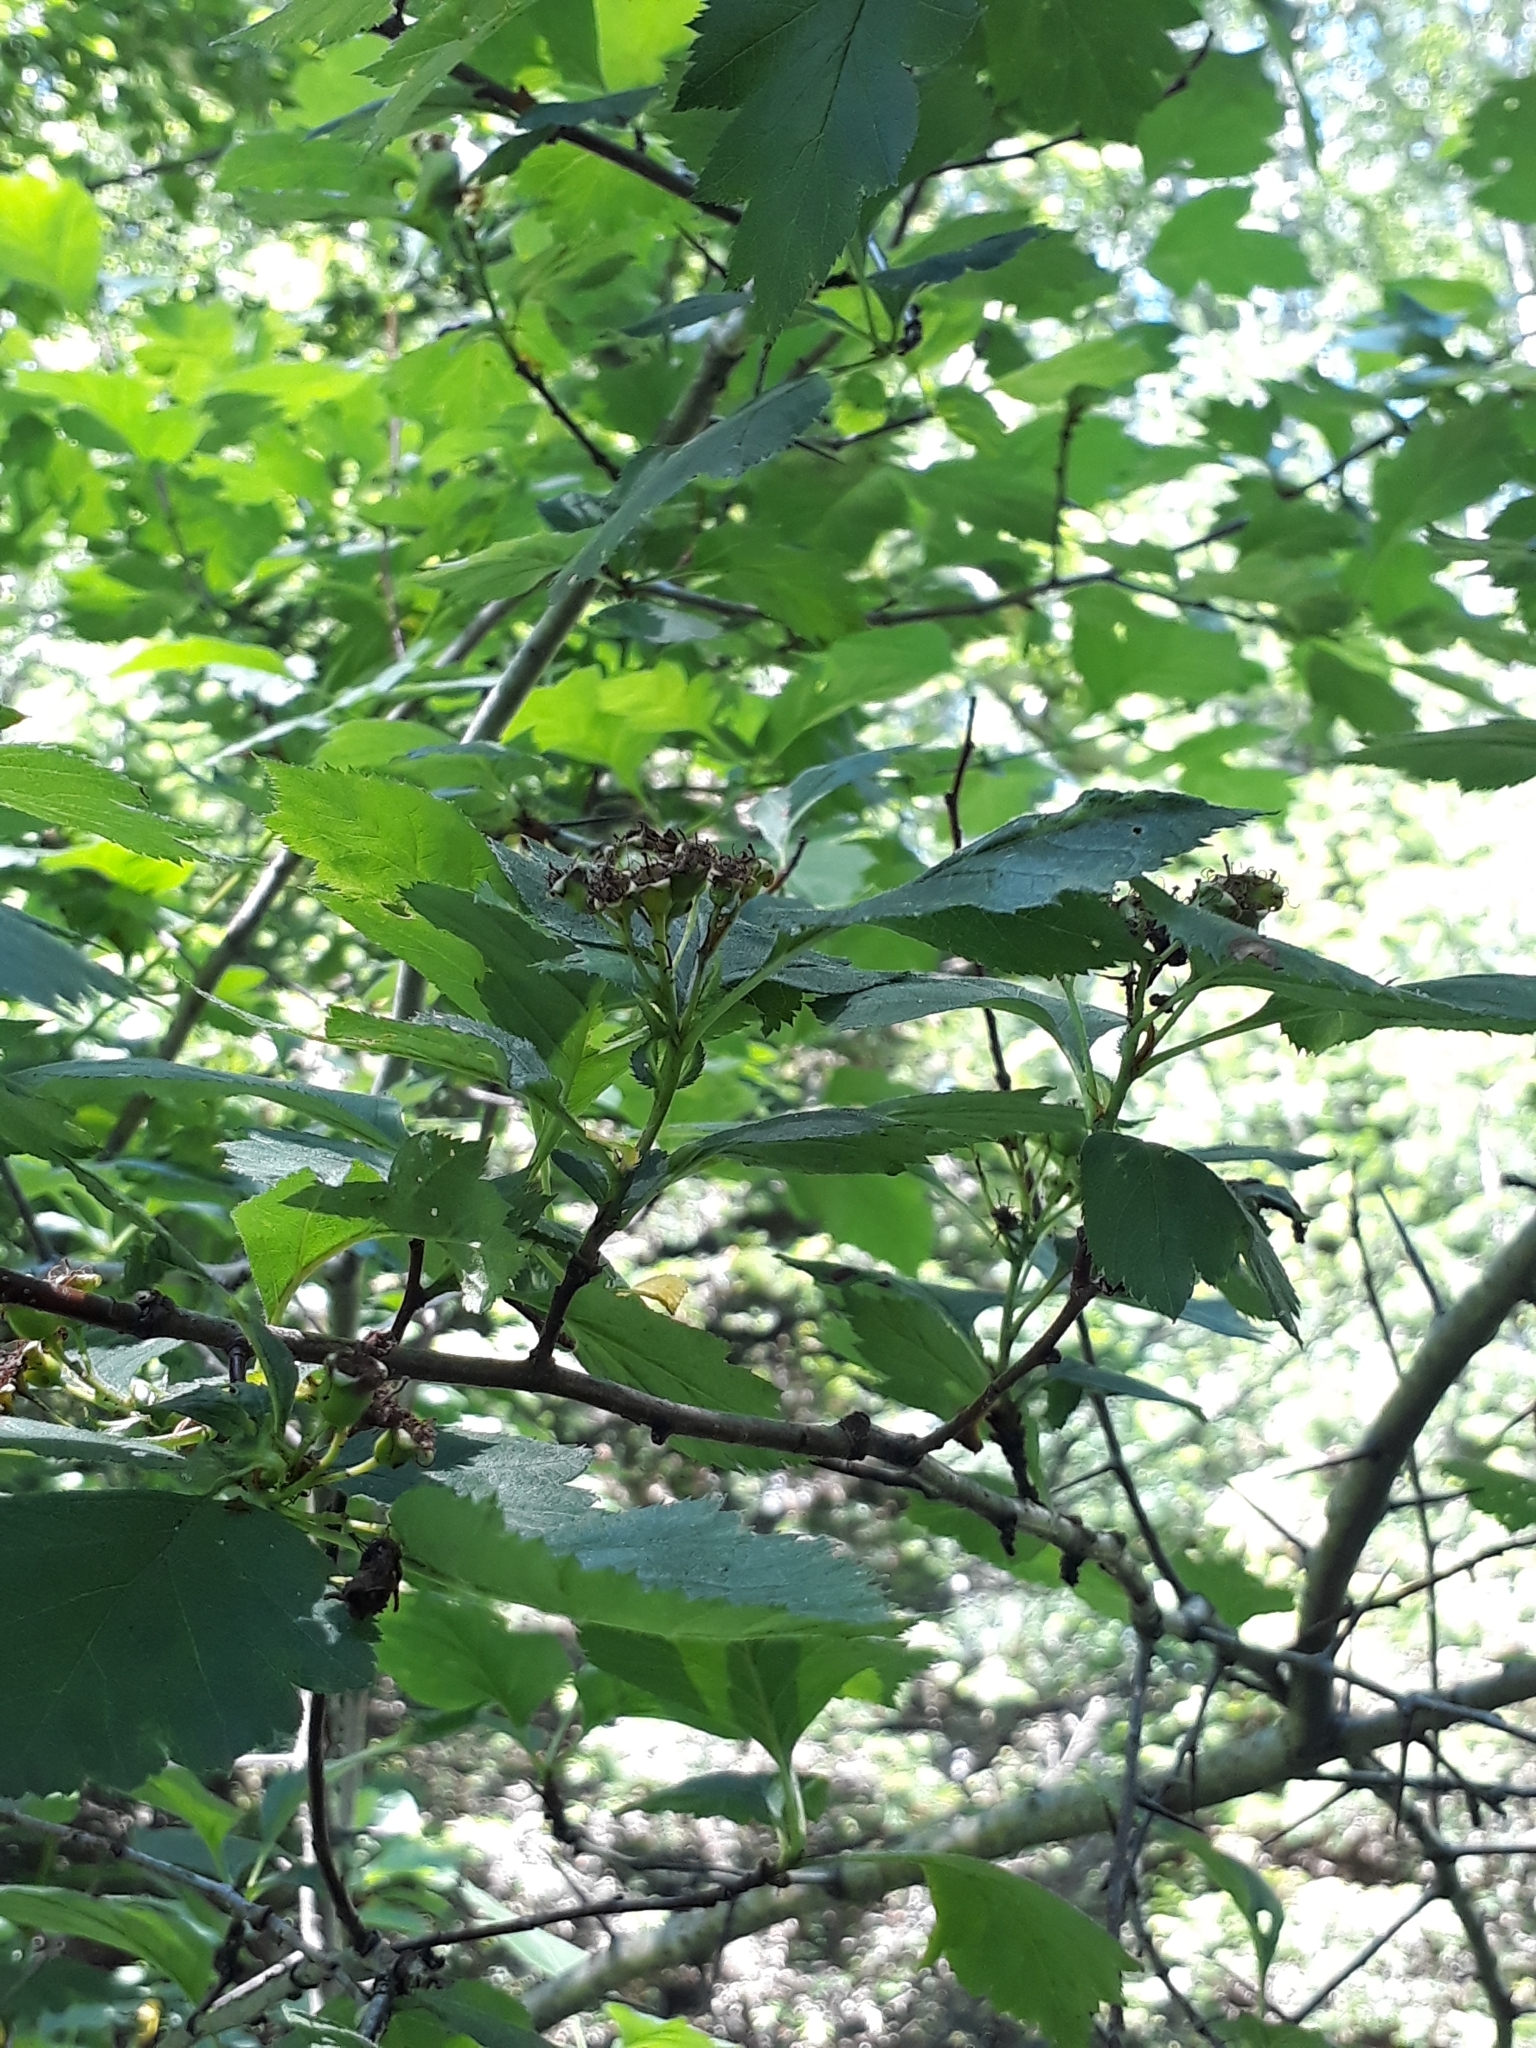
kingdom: Plantae
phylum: Tracheophyta
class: Magnoliopsida
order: Rosales
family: Rosaceae
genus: Crataegus
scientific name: Crataegus sanguinea
